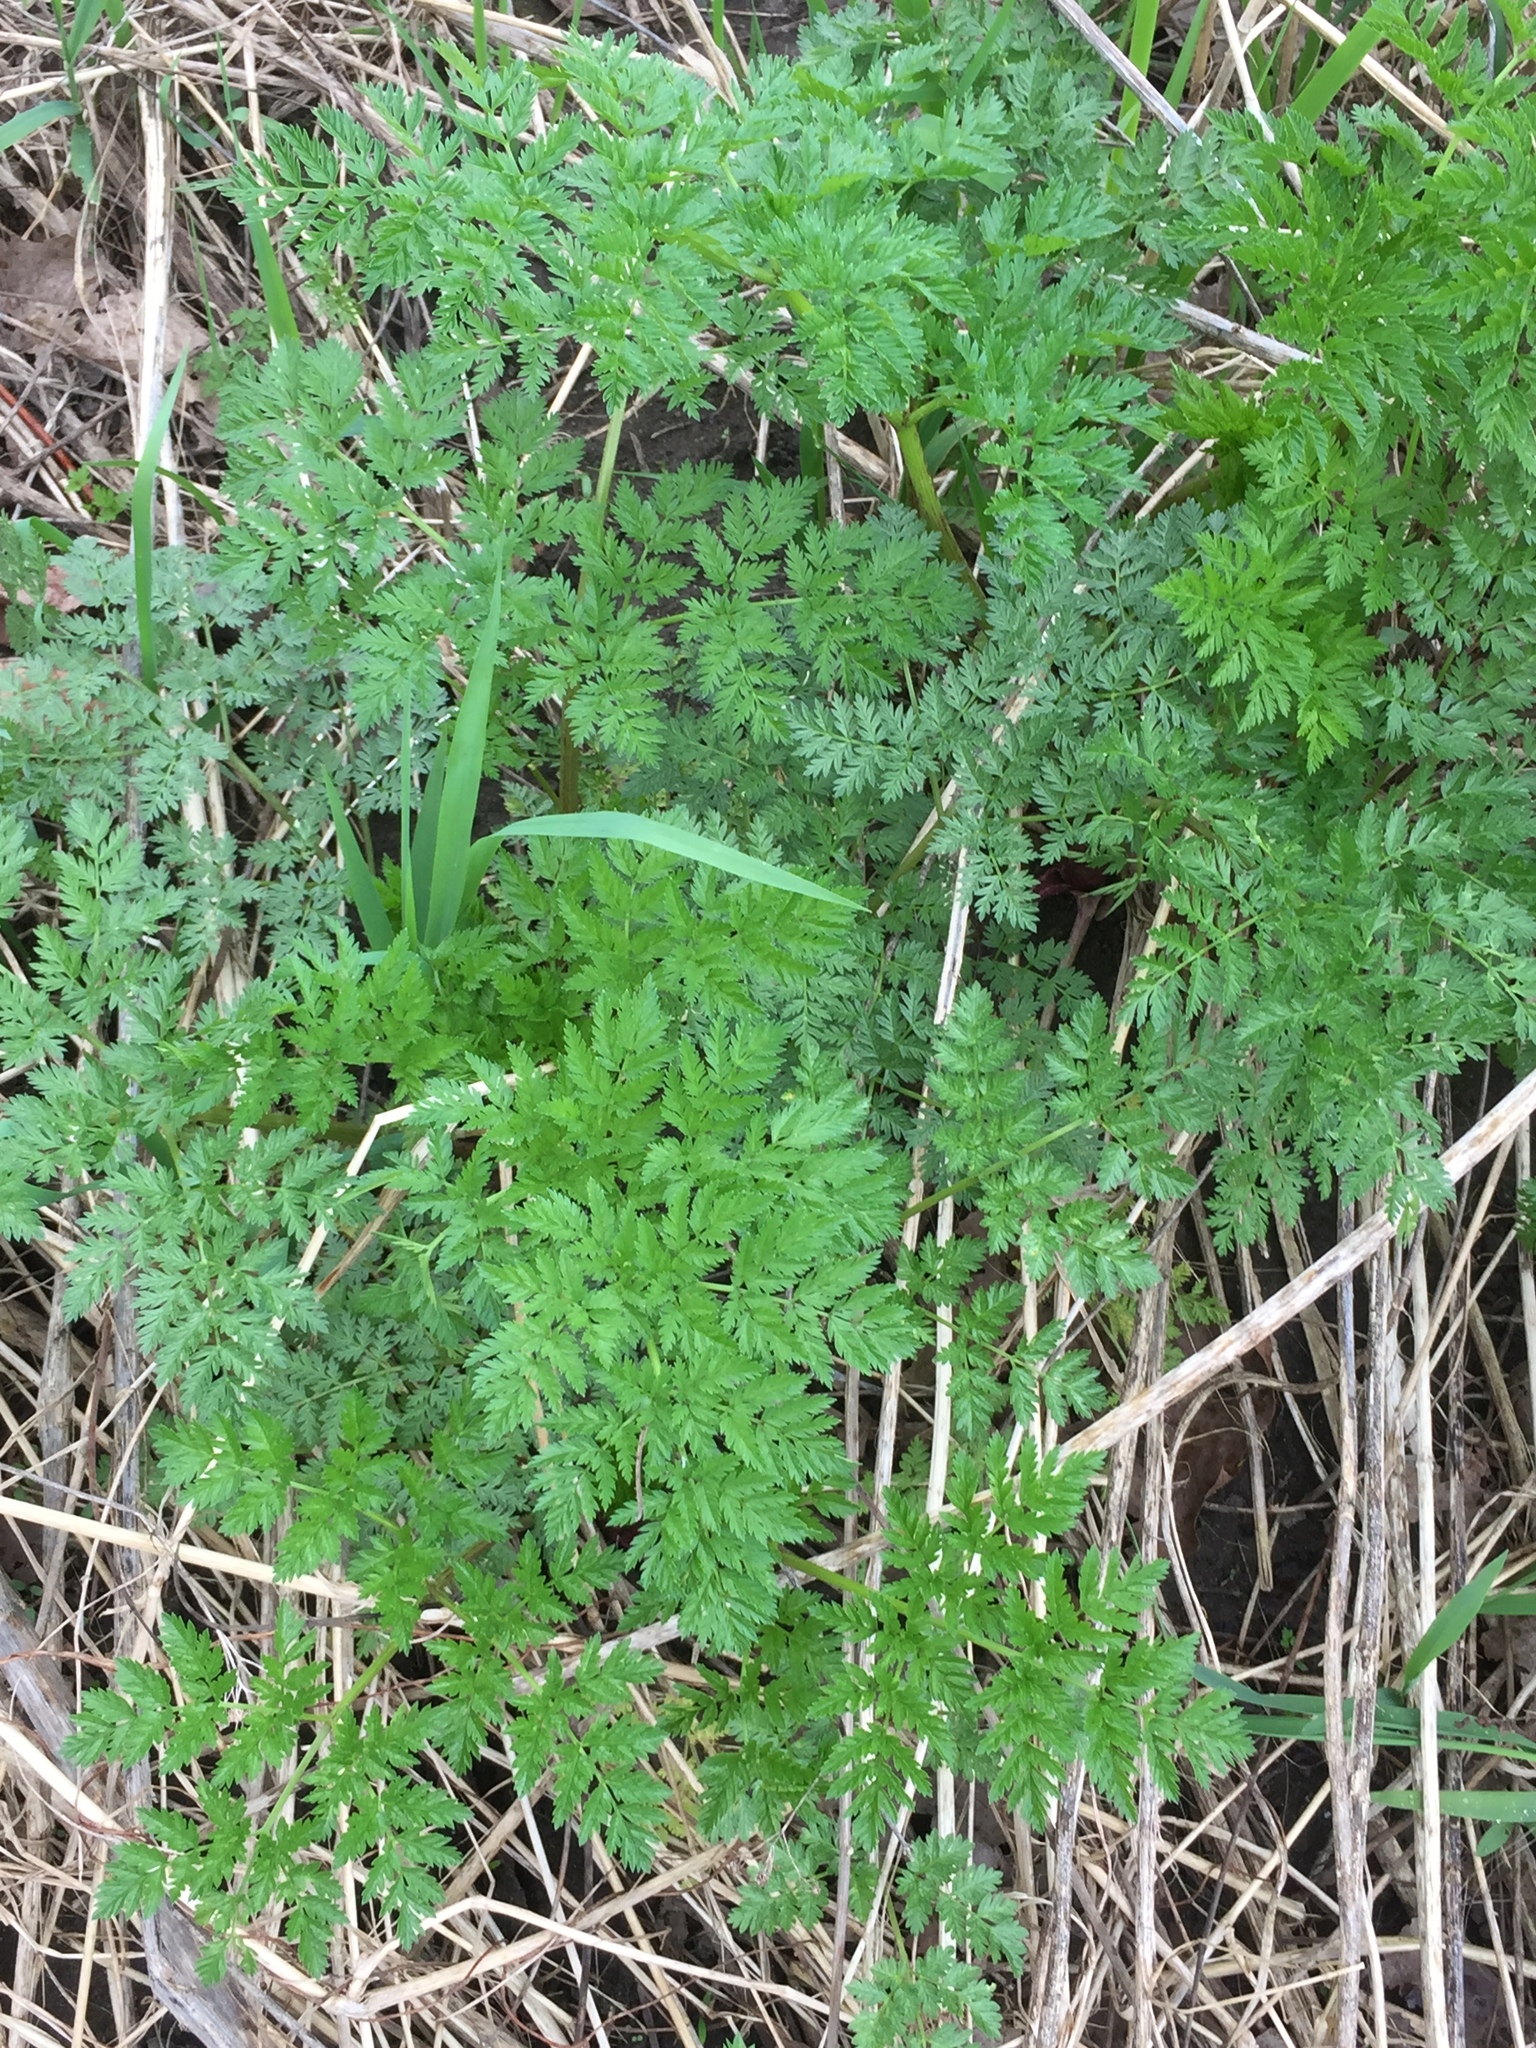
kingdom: Plantae
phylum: Tracheophyta
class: Magnoliopsida
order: Apiales
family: Apiaceae
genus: Conium
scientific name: Conium maculatum
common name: Hemlock
